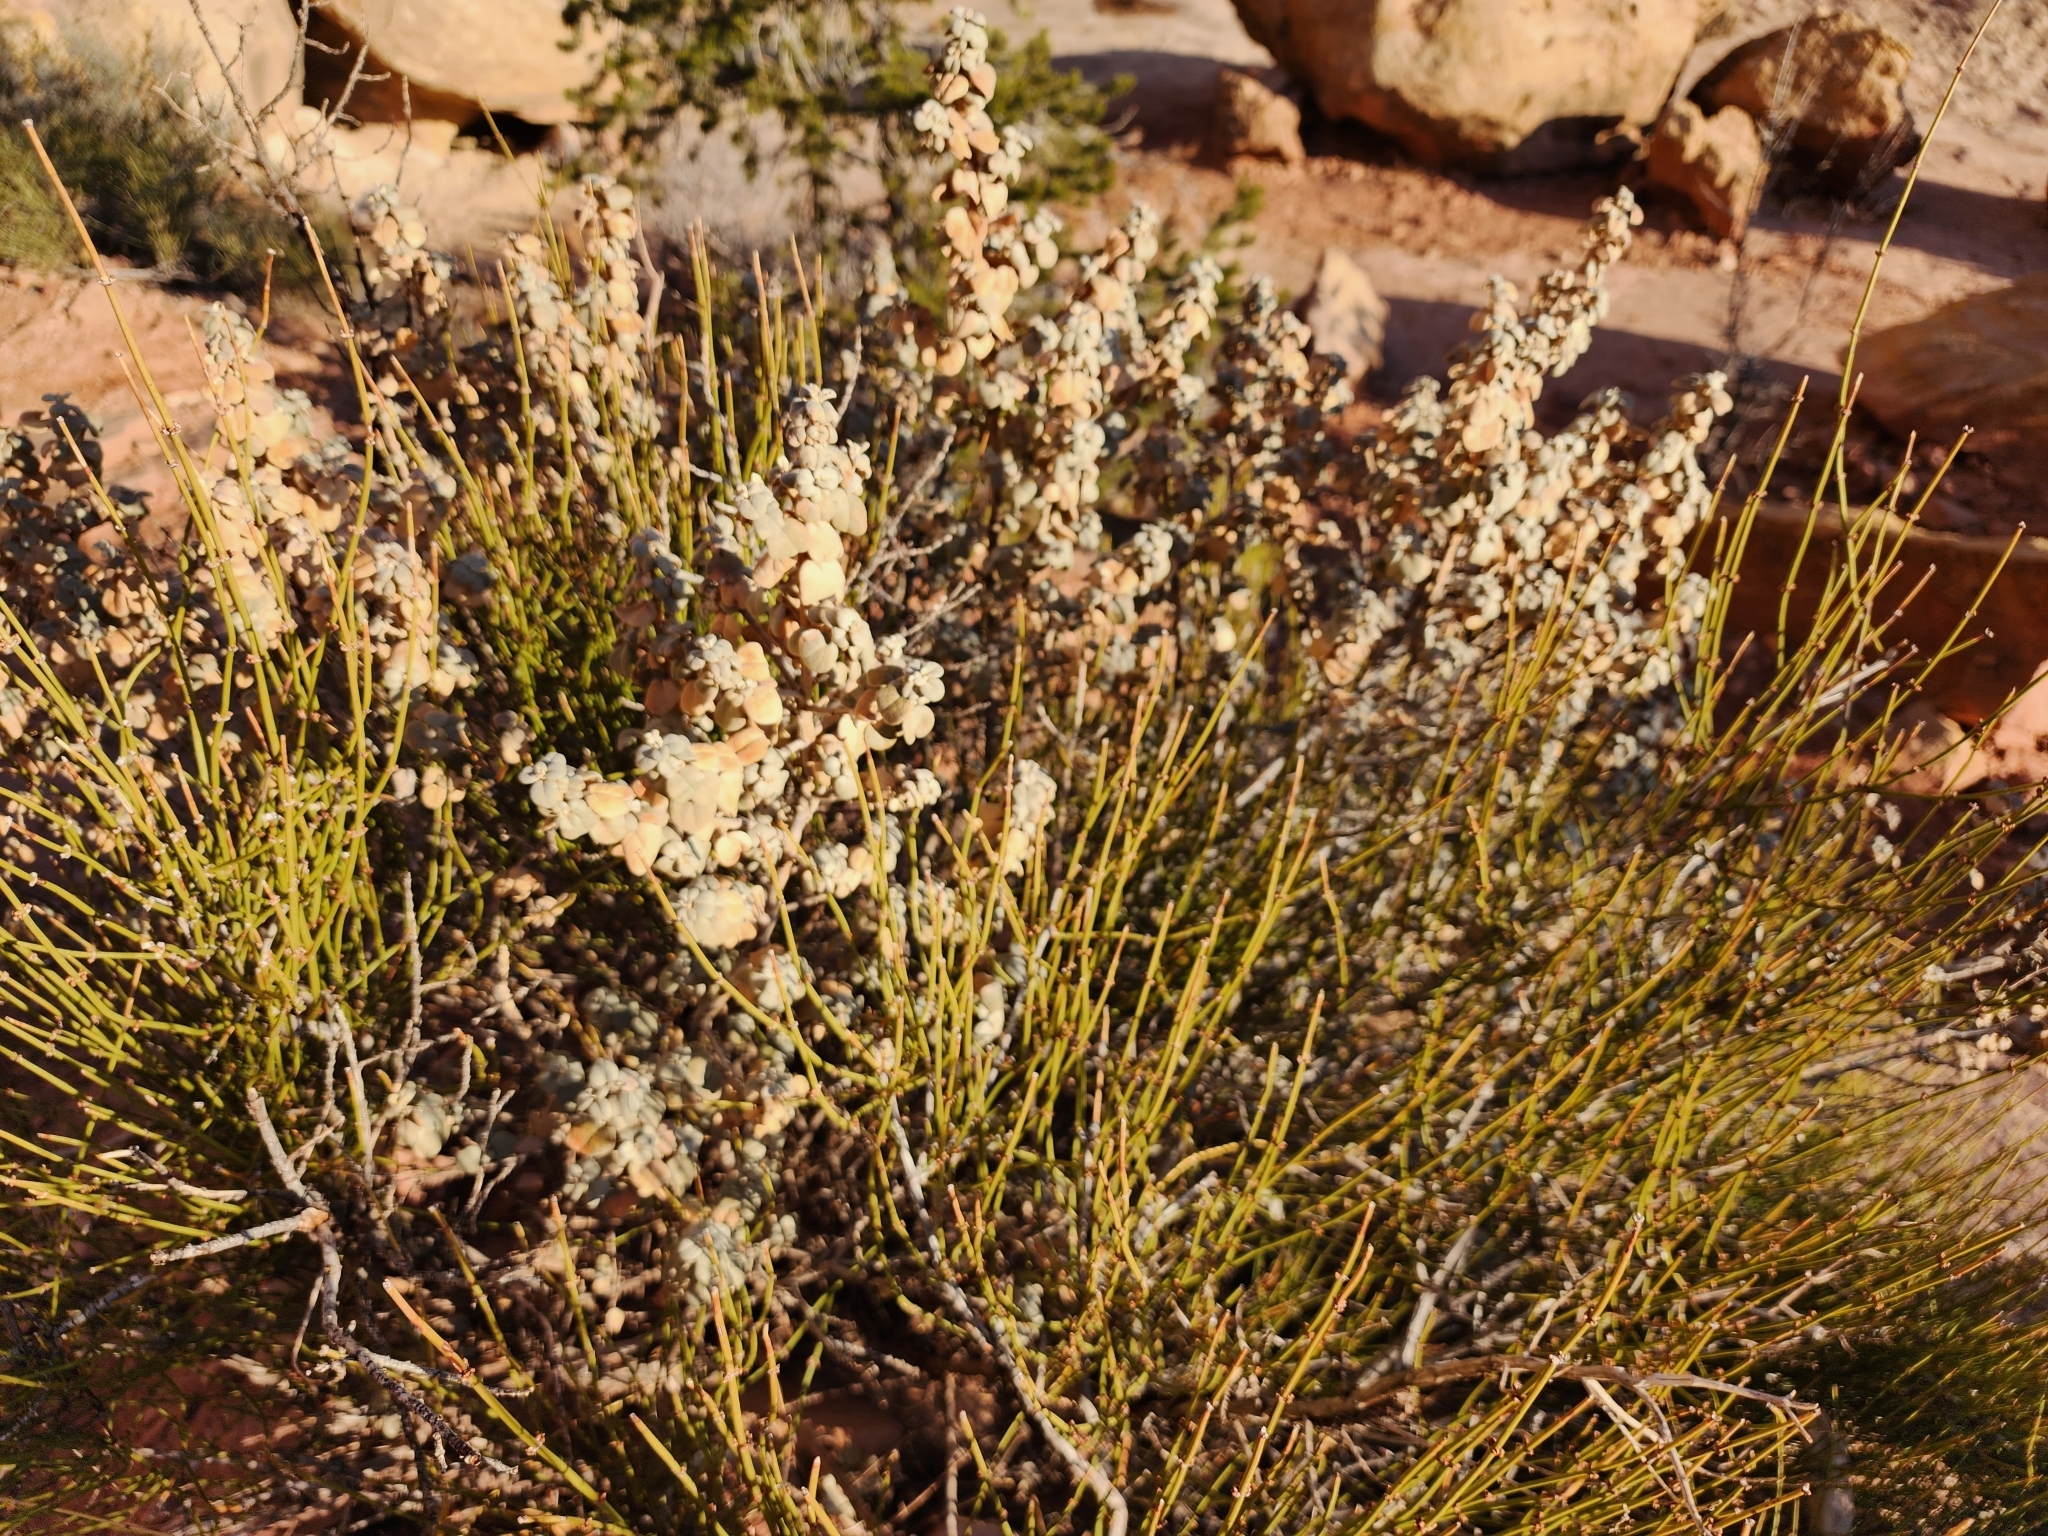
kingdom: Plantae
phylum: Tracheophyta
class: Magnoliopsida
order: Rosales
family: Elaeagnaceae
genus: Shepherdia
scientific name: Shepherdia rotundifolia
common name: Silverscale
